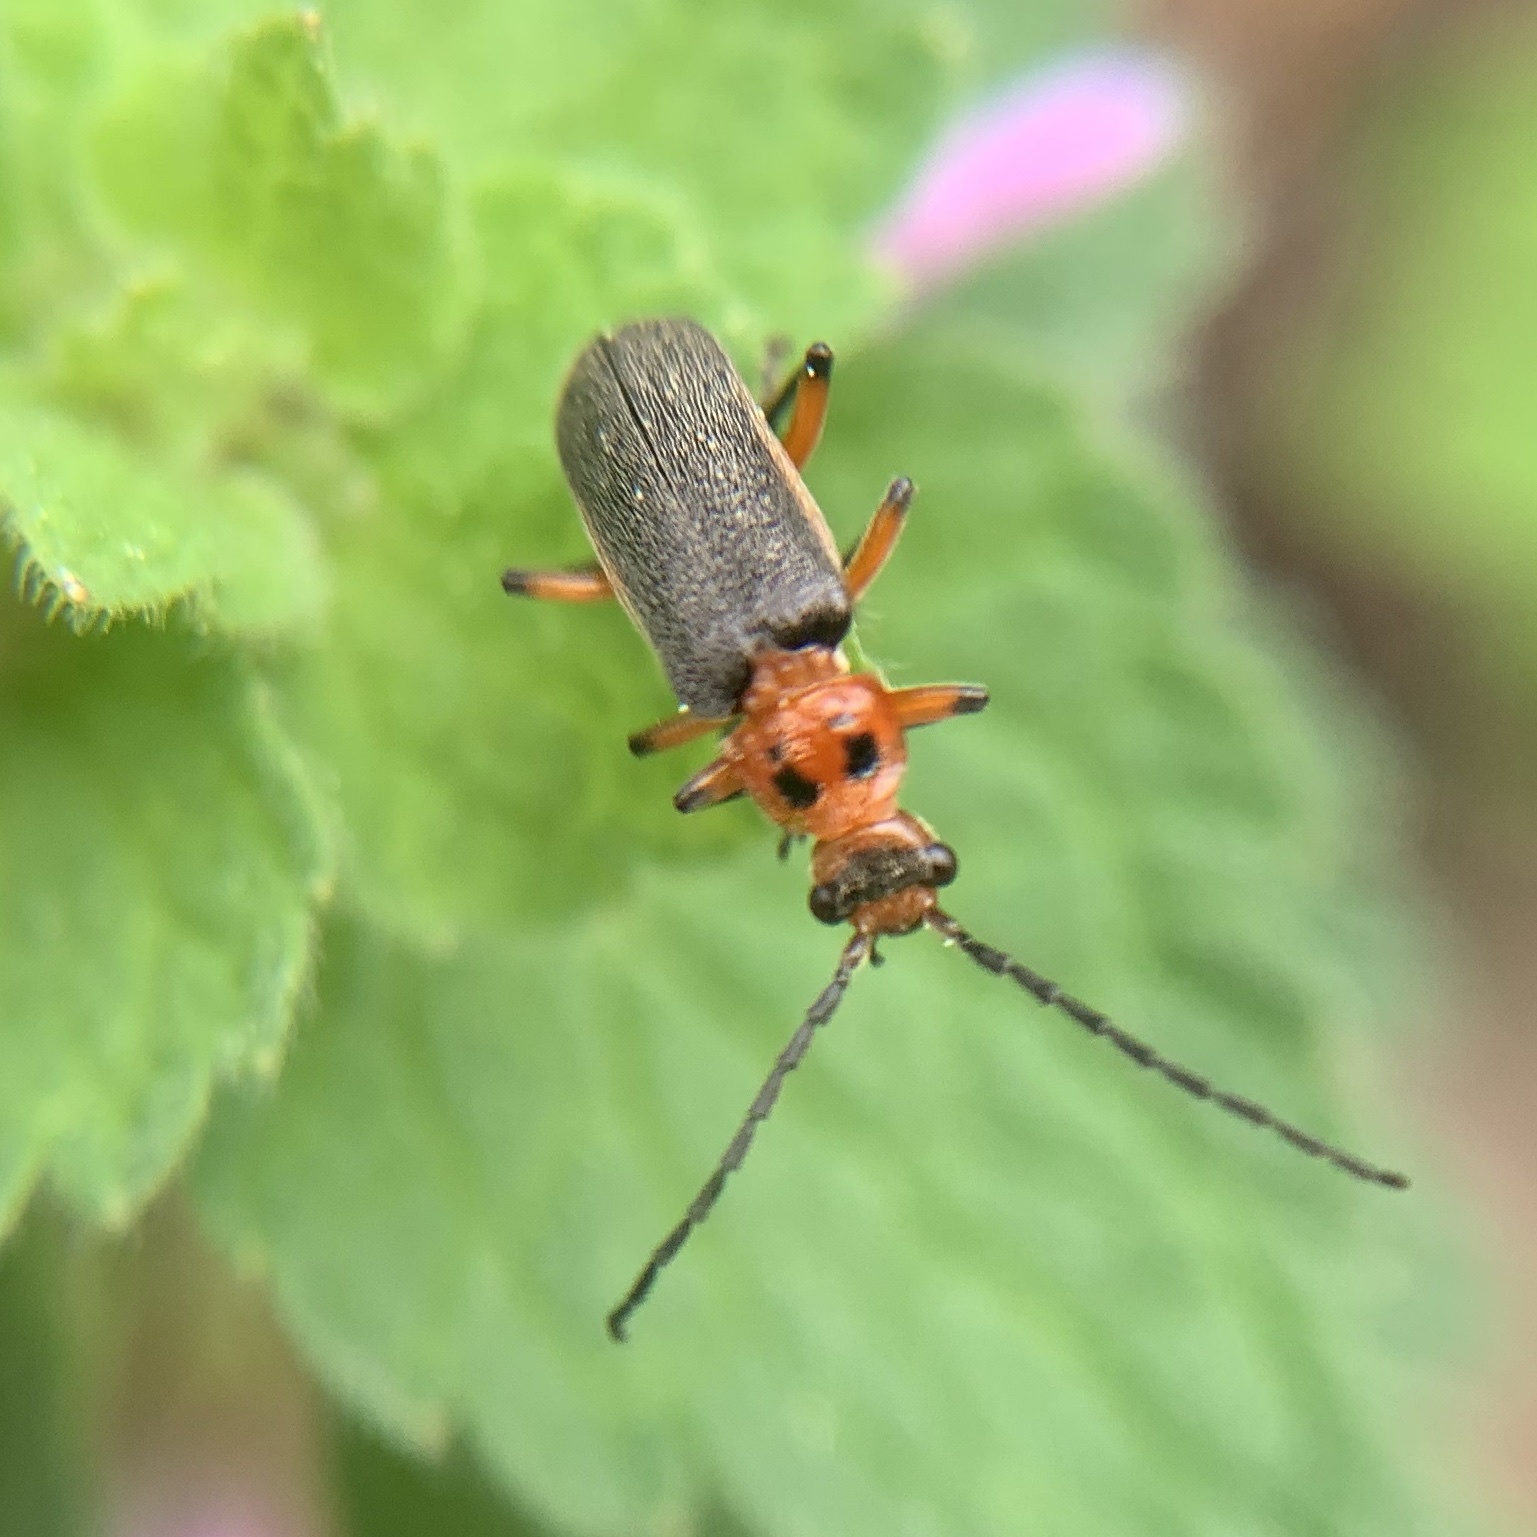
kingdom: Animalia
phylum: Arthropoda
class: Insecta
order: Coleoptera
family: Cantharidae
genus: Atalantycha
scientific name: Atalantycha bilineata
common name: Two-lined leatherwing
